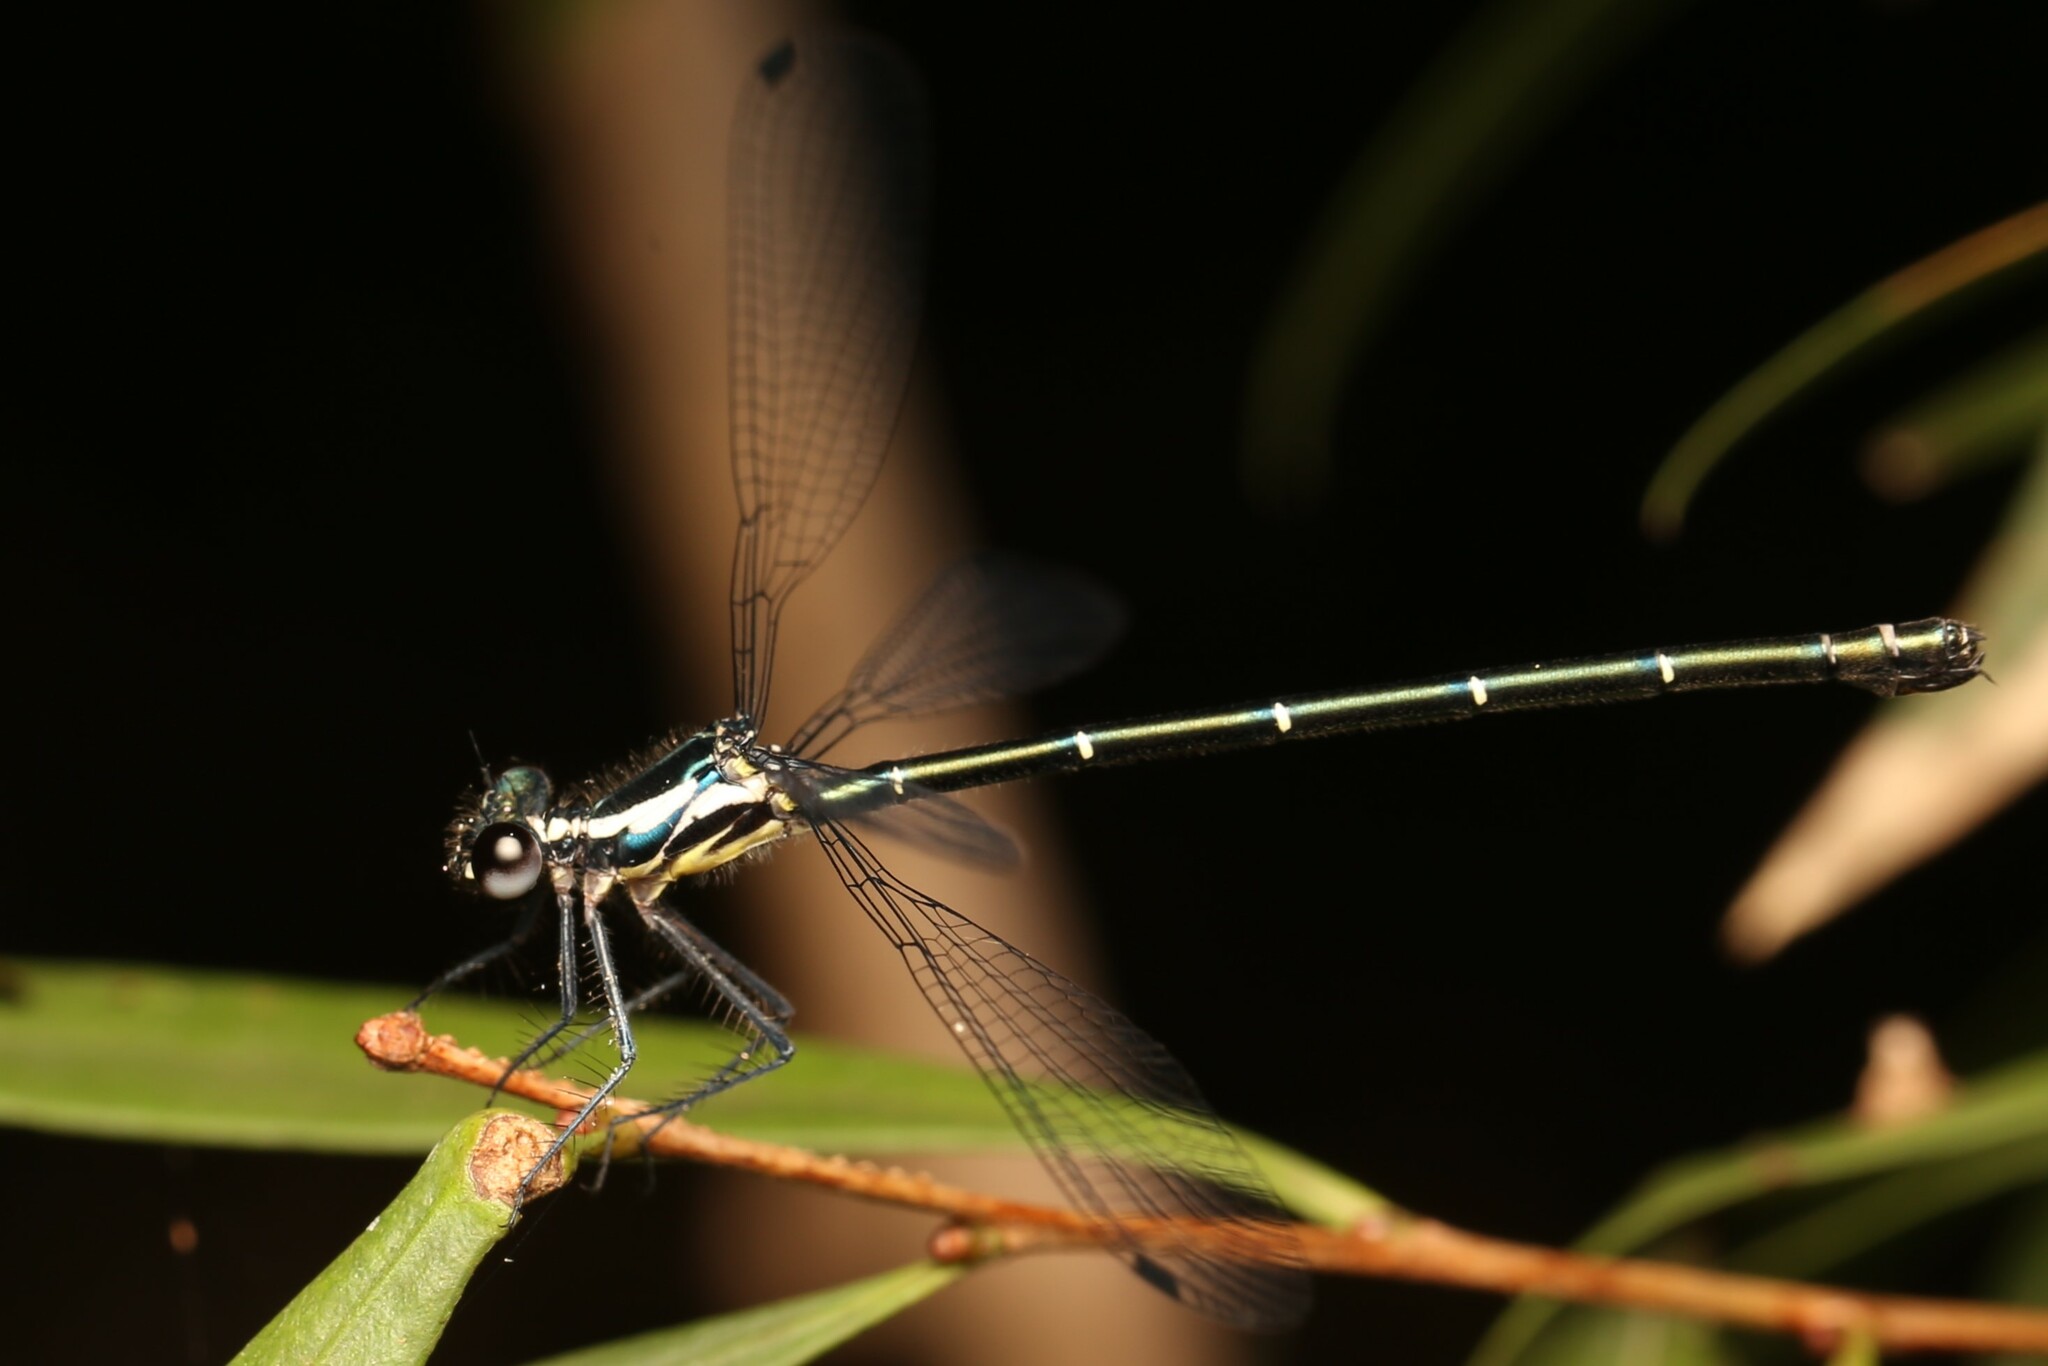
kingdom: Animalia
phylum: Arthropoda
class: Insecta
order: Odonata
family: Argiolestidae
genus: Austroargiolestes
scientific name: Austroargiolestes icteromelas
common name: Common flatwing
